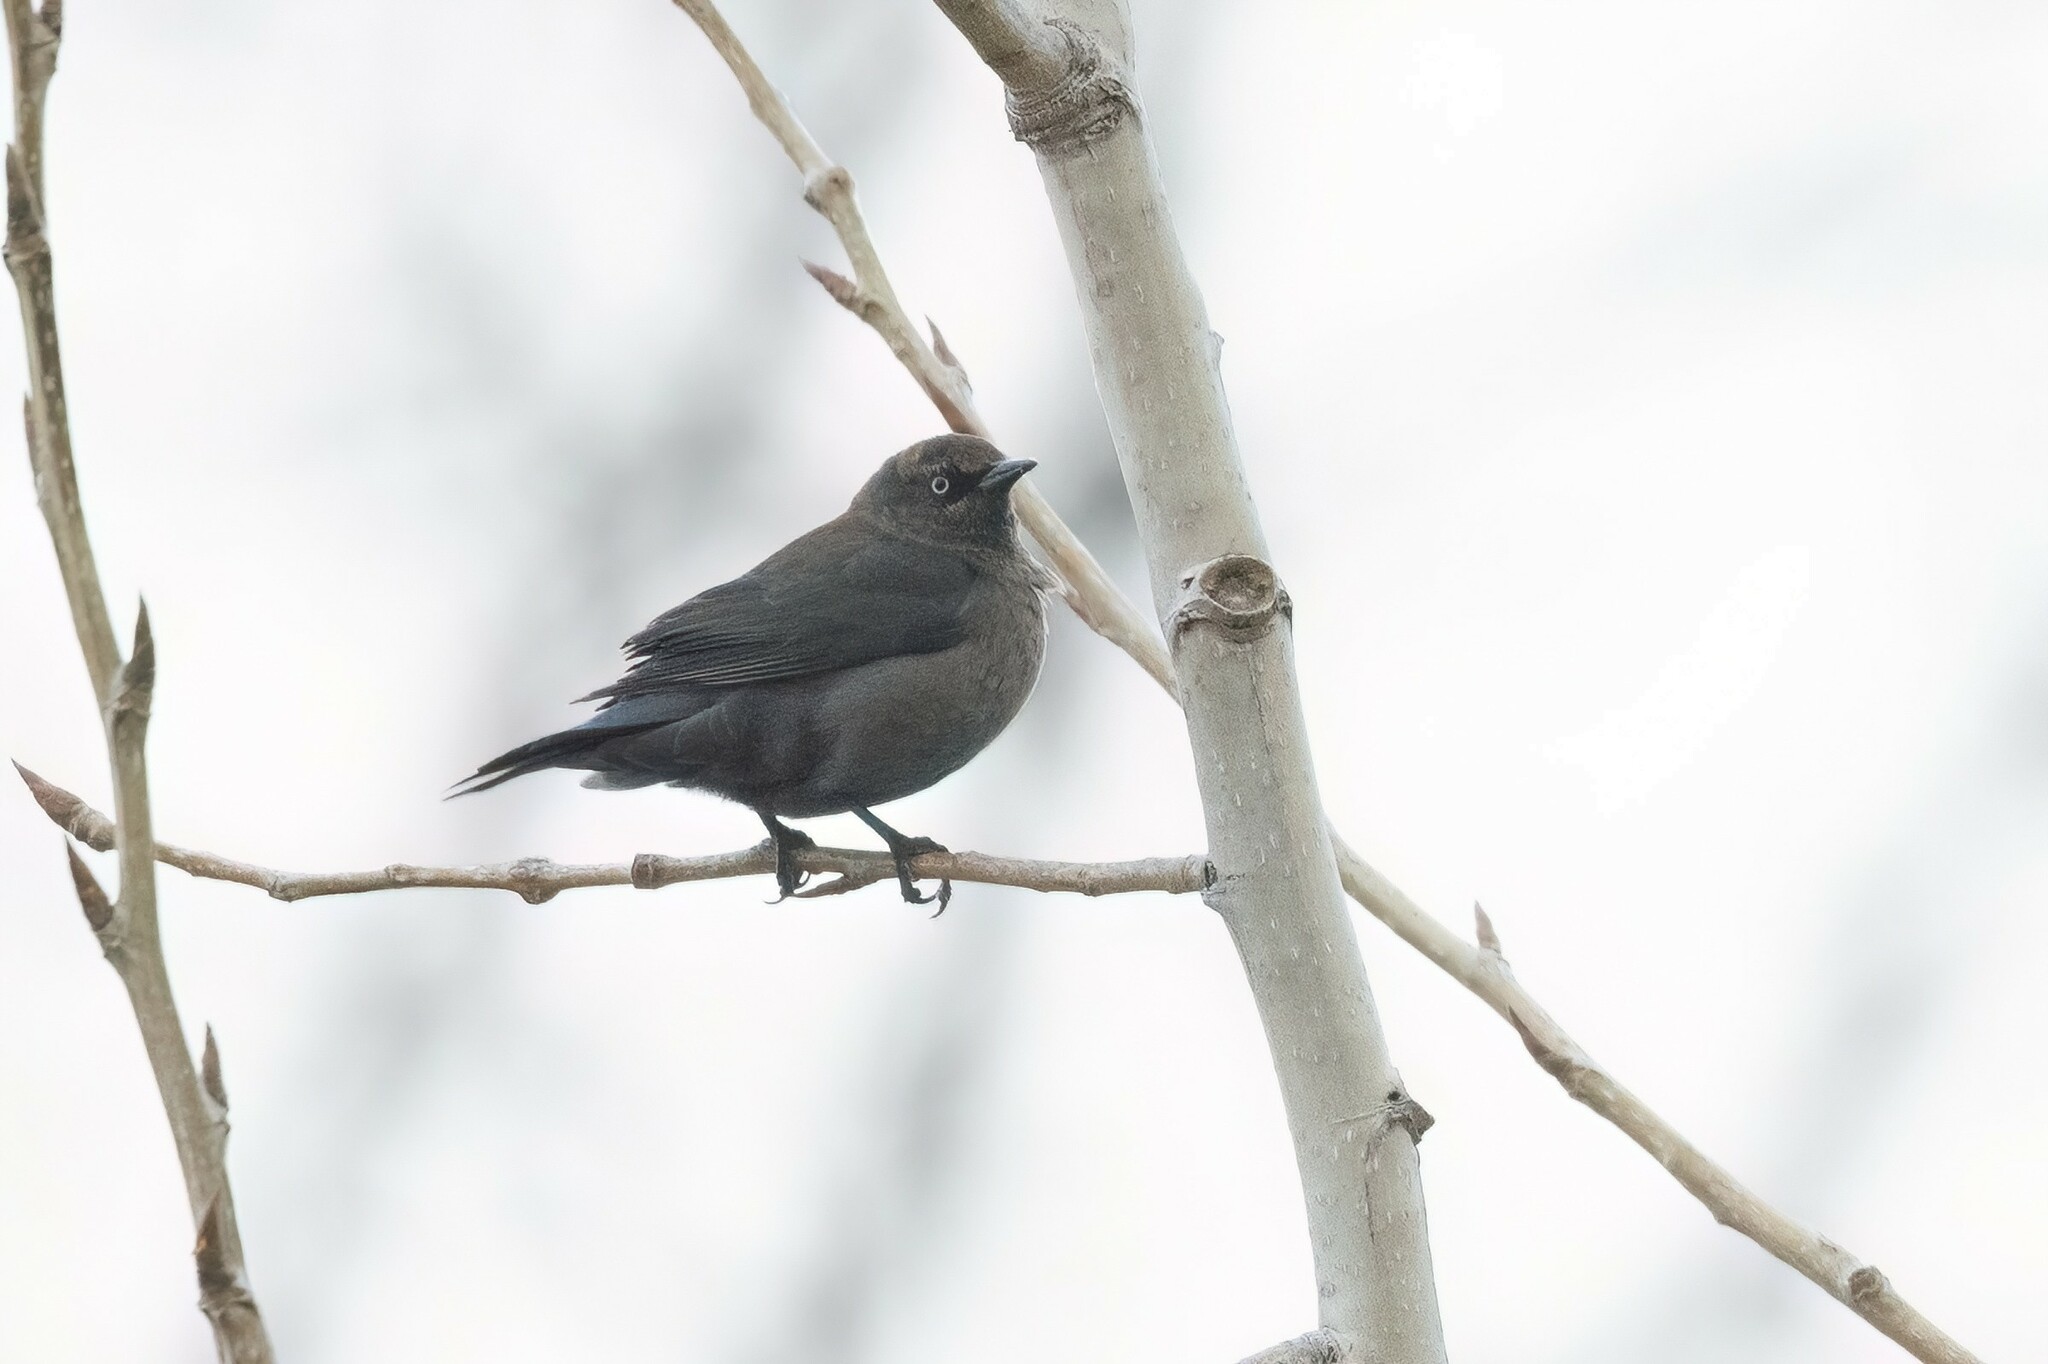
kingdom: Animalia
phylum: Chordata
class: Aves
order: Passeriformes
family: Icteridae
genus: Euphagus
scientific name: Euphagus carolinus
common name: Rusty blackbird
